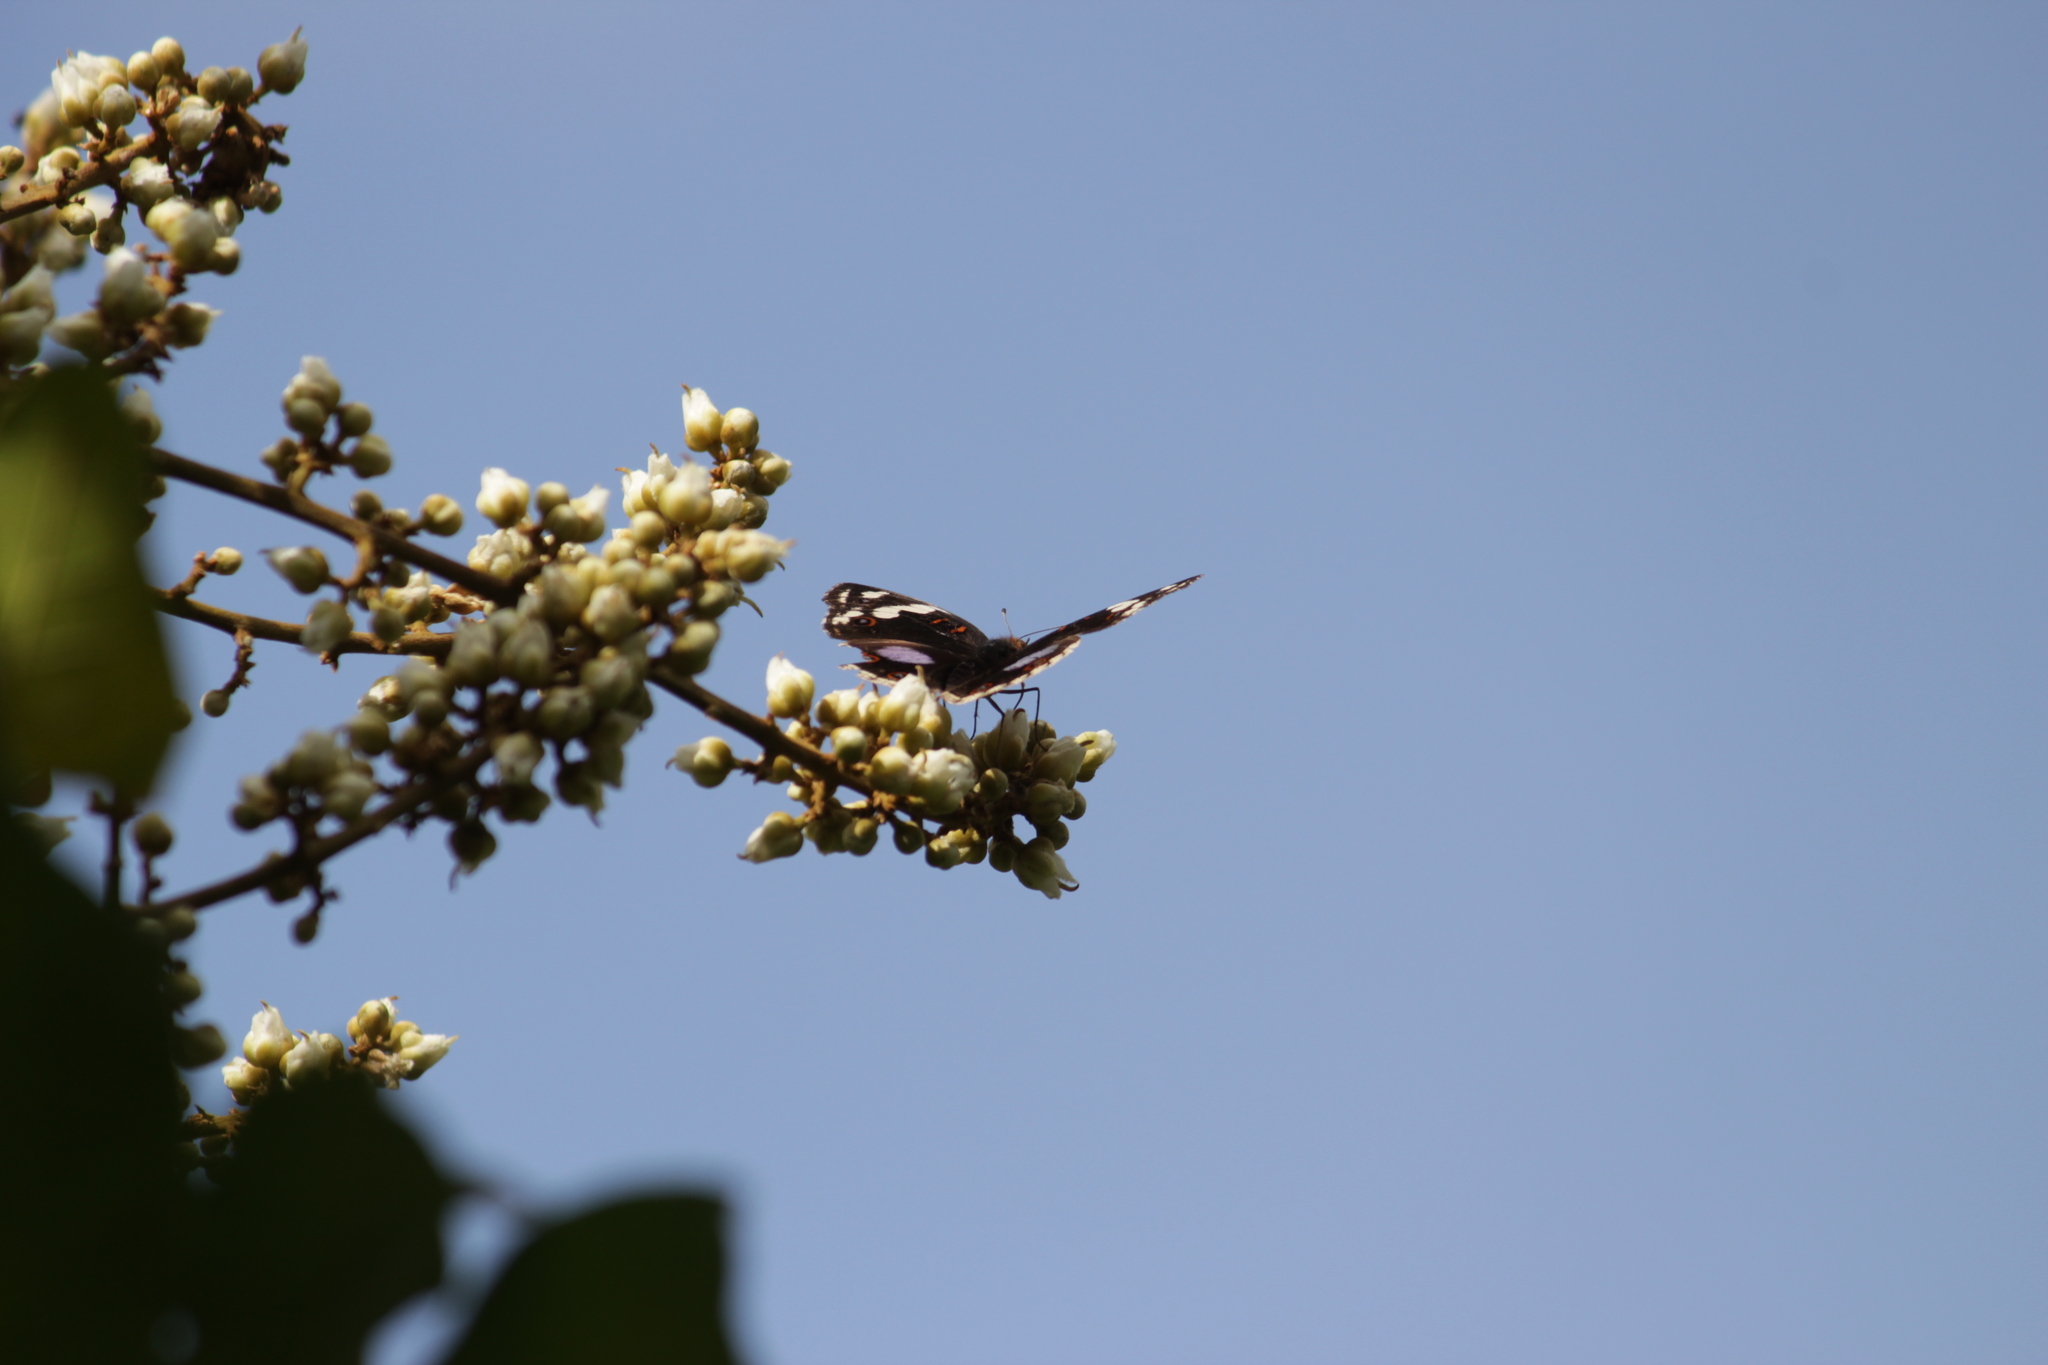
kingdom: Animalia
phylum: Arthropoda
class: Insecta
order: Lepidoptera
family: Nymphalidae
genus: Junonia
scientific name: Junonia oenone
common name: Dark blue pansy
